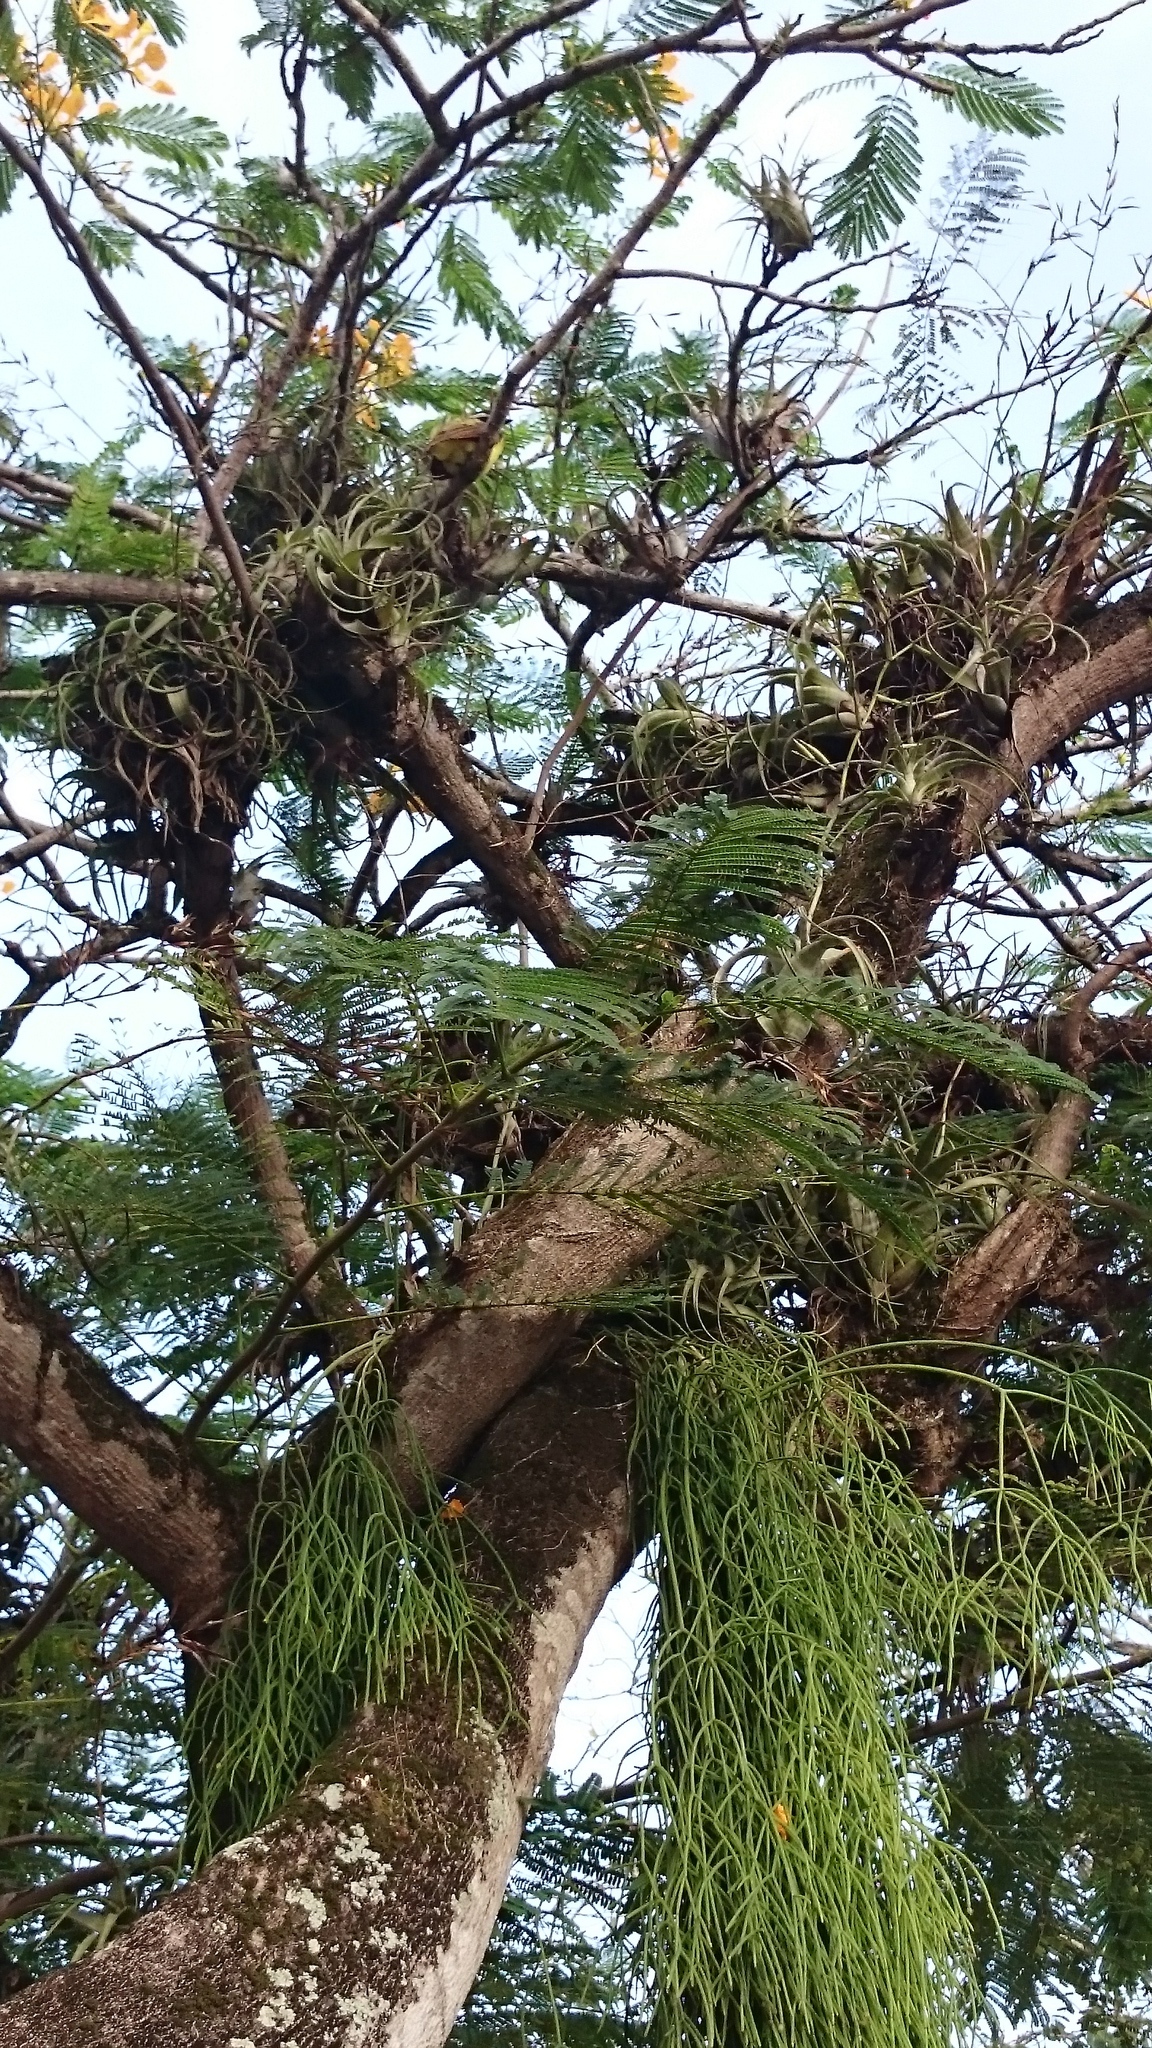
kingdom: Plantae
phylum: Tracheophyta
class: Liliopsida
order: Poales
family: Bromeliaceae
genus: Tillandsia
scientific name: Tillandsia flexuosa
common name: Banded airplant
